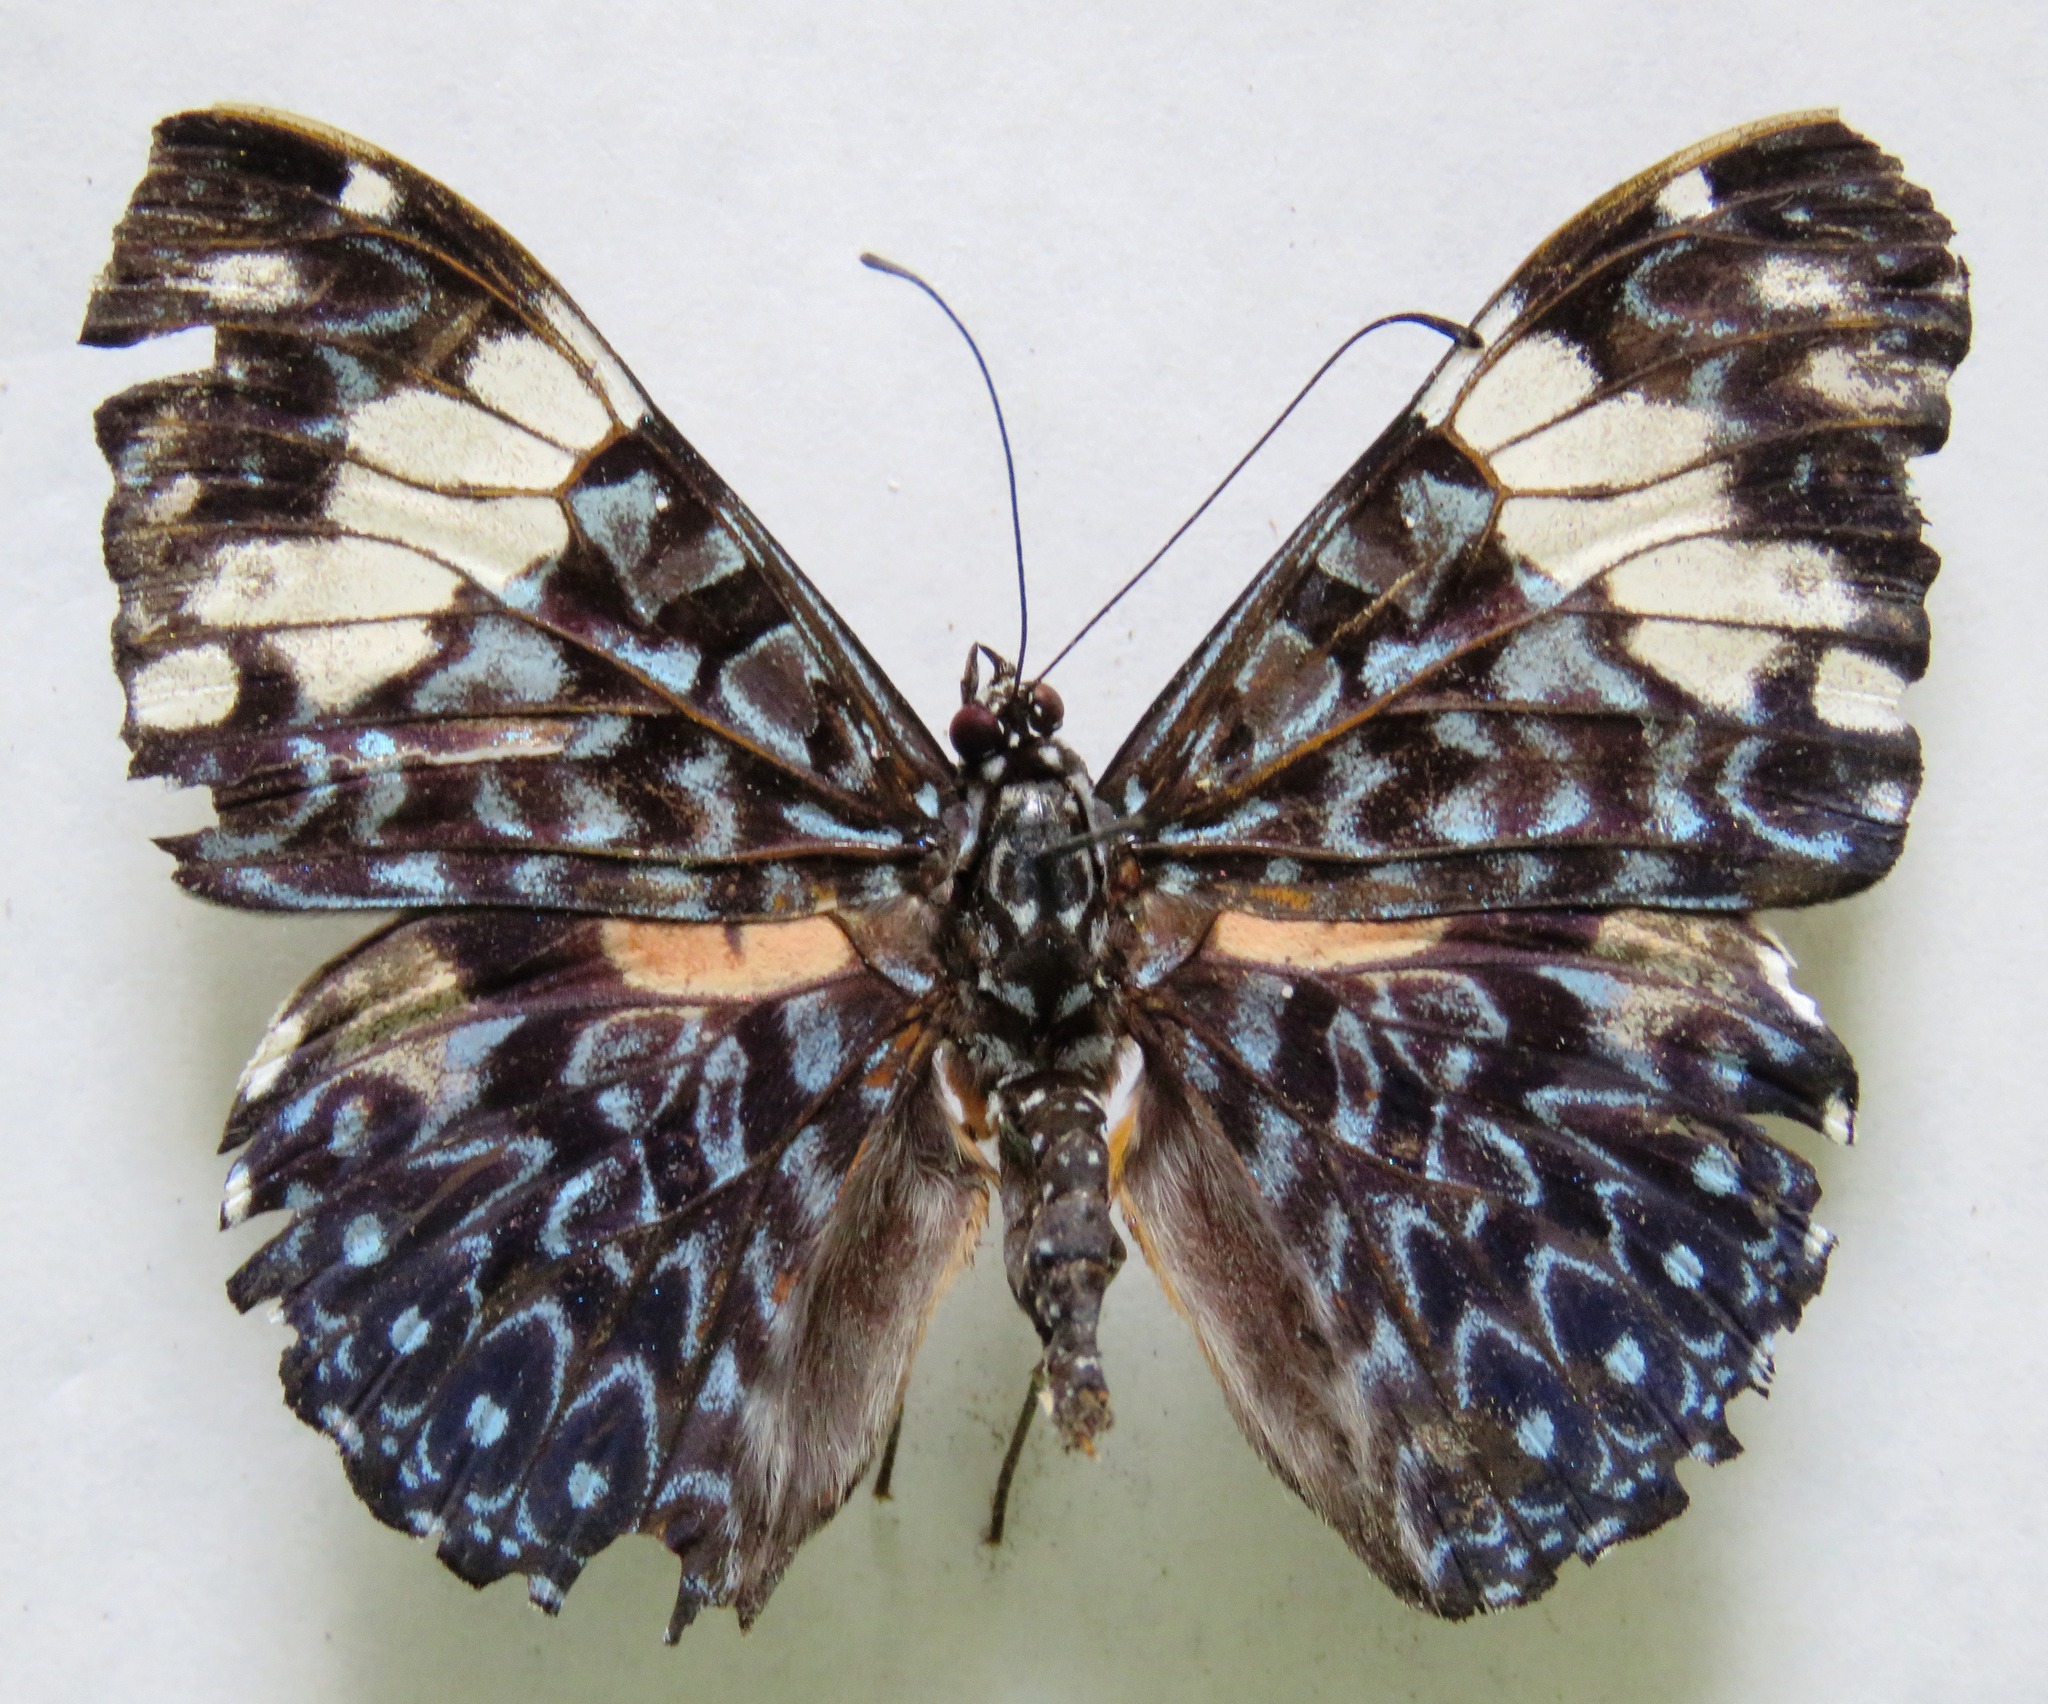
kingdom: Animalia
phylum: Arthropoda
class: Insecta
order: Lepidoptera
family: Nymphalidae
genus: Hamadryas
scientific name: Hamadryas amphinome
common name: Red cracker
